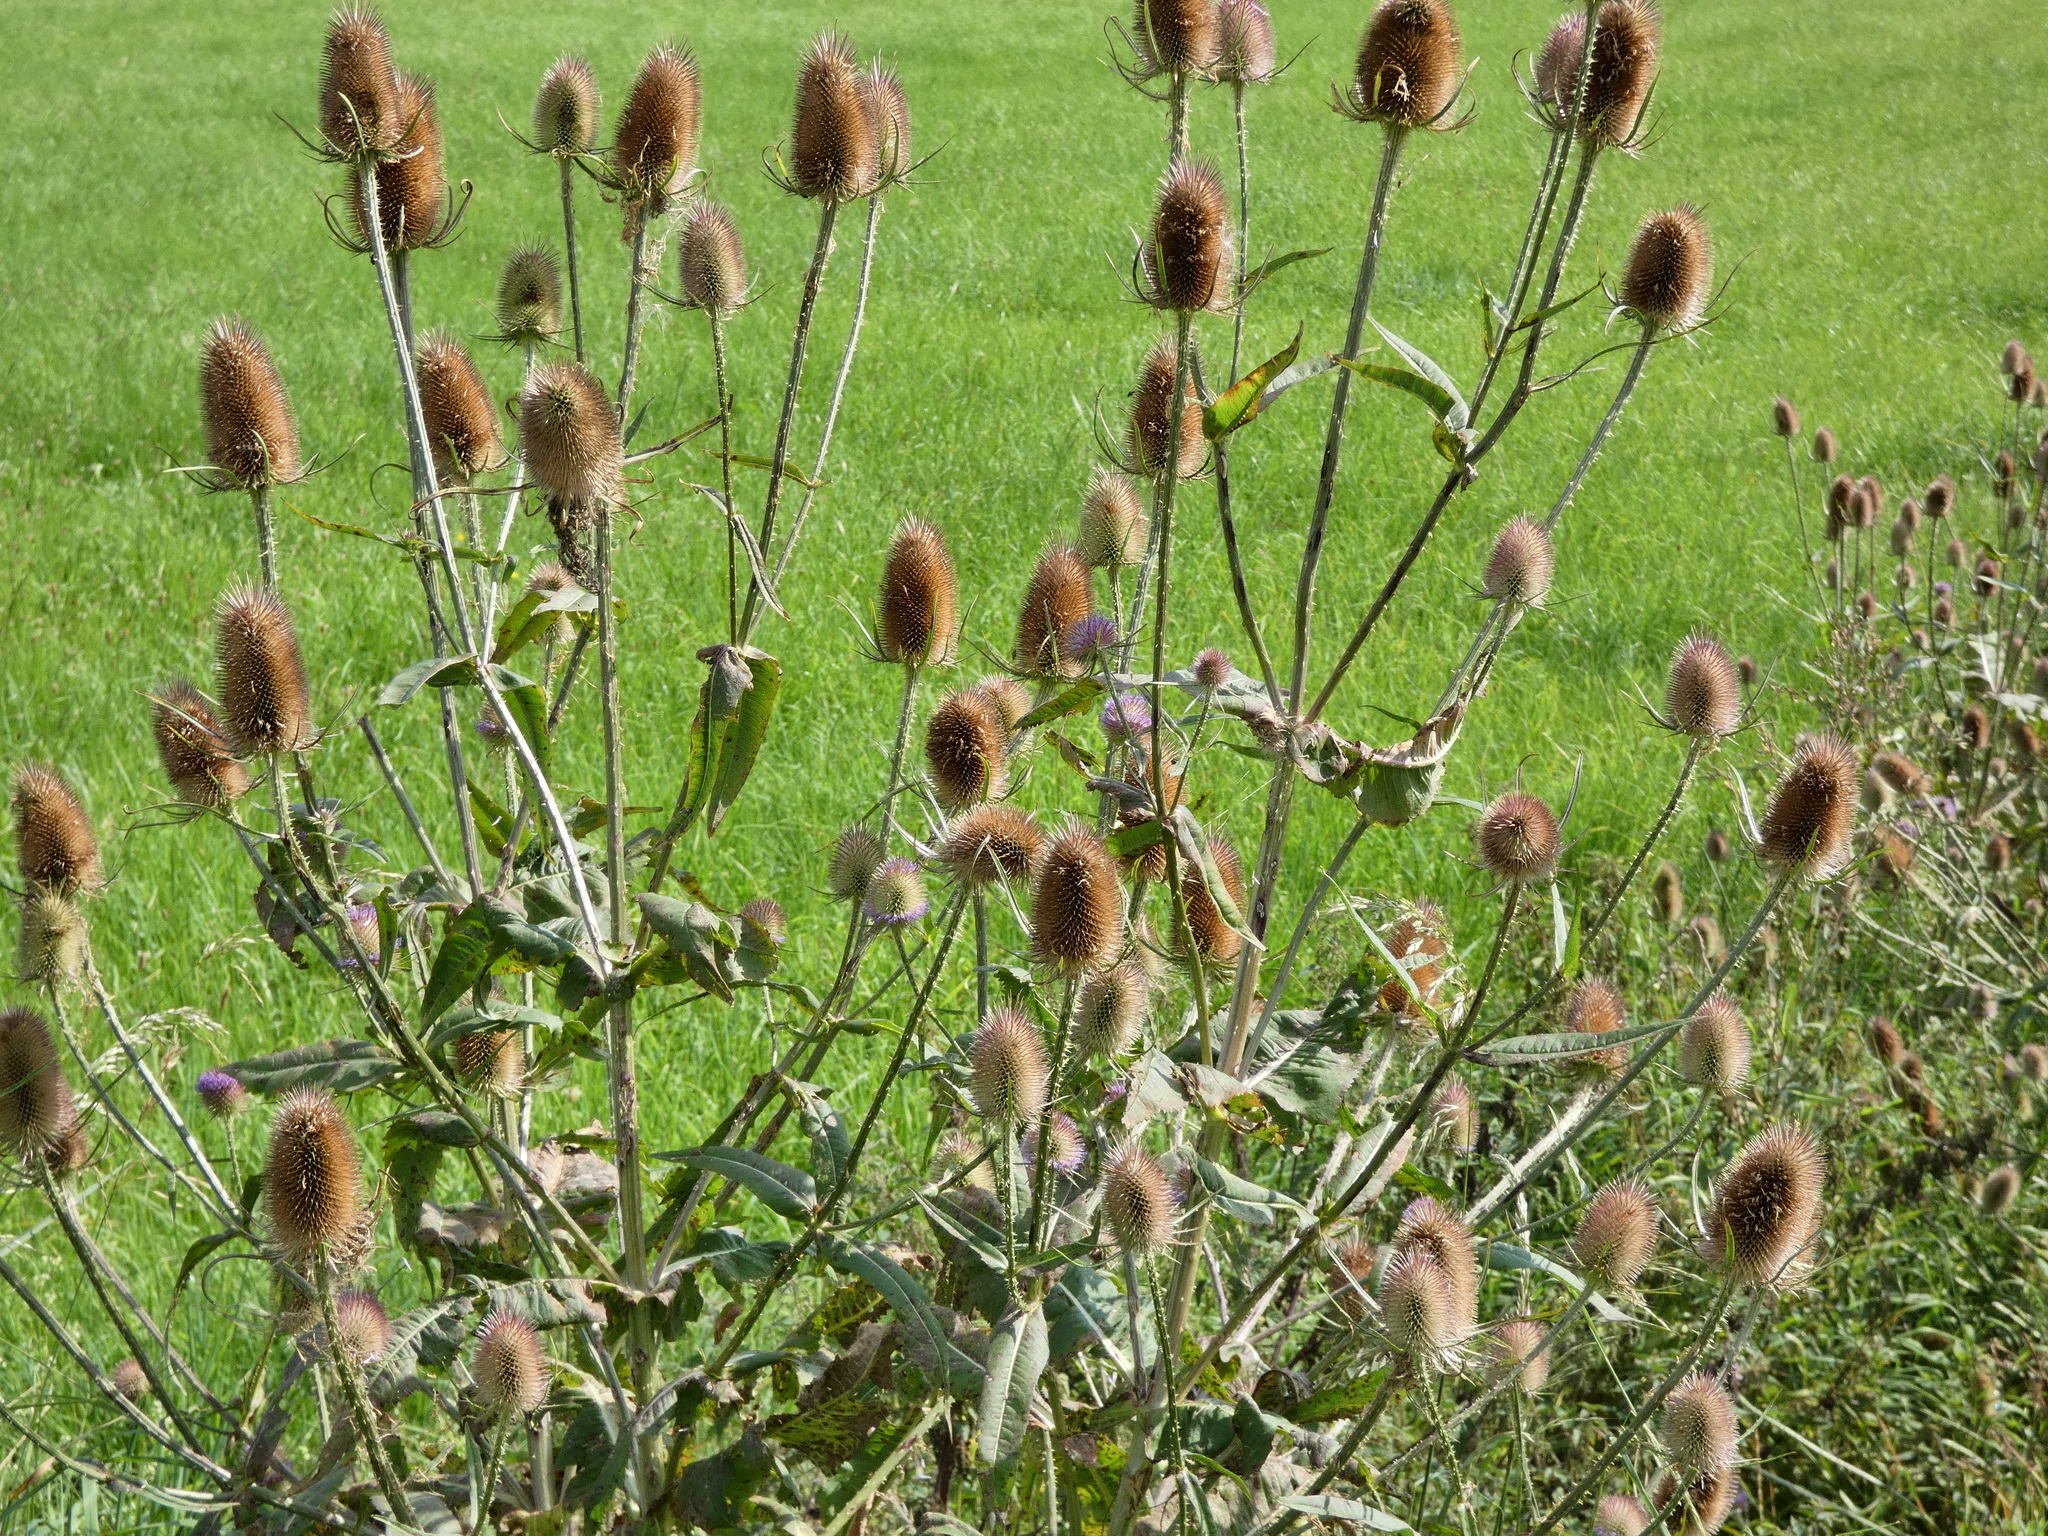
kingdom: Plantae
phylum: Tracheophyta
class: Magnoliopsida
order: Dipsacales
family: Caprifoliaceae
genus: Dipsacus
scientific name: Dipsacus fullonum
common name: Teasel
